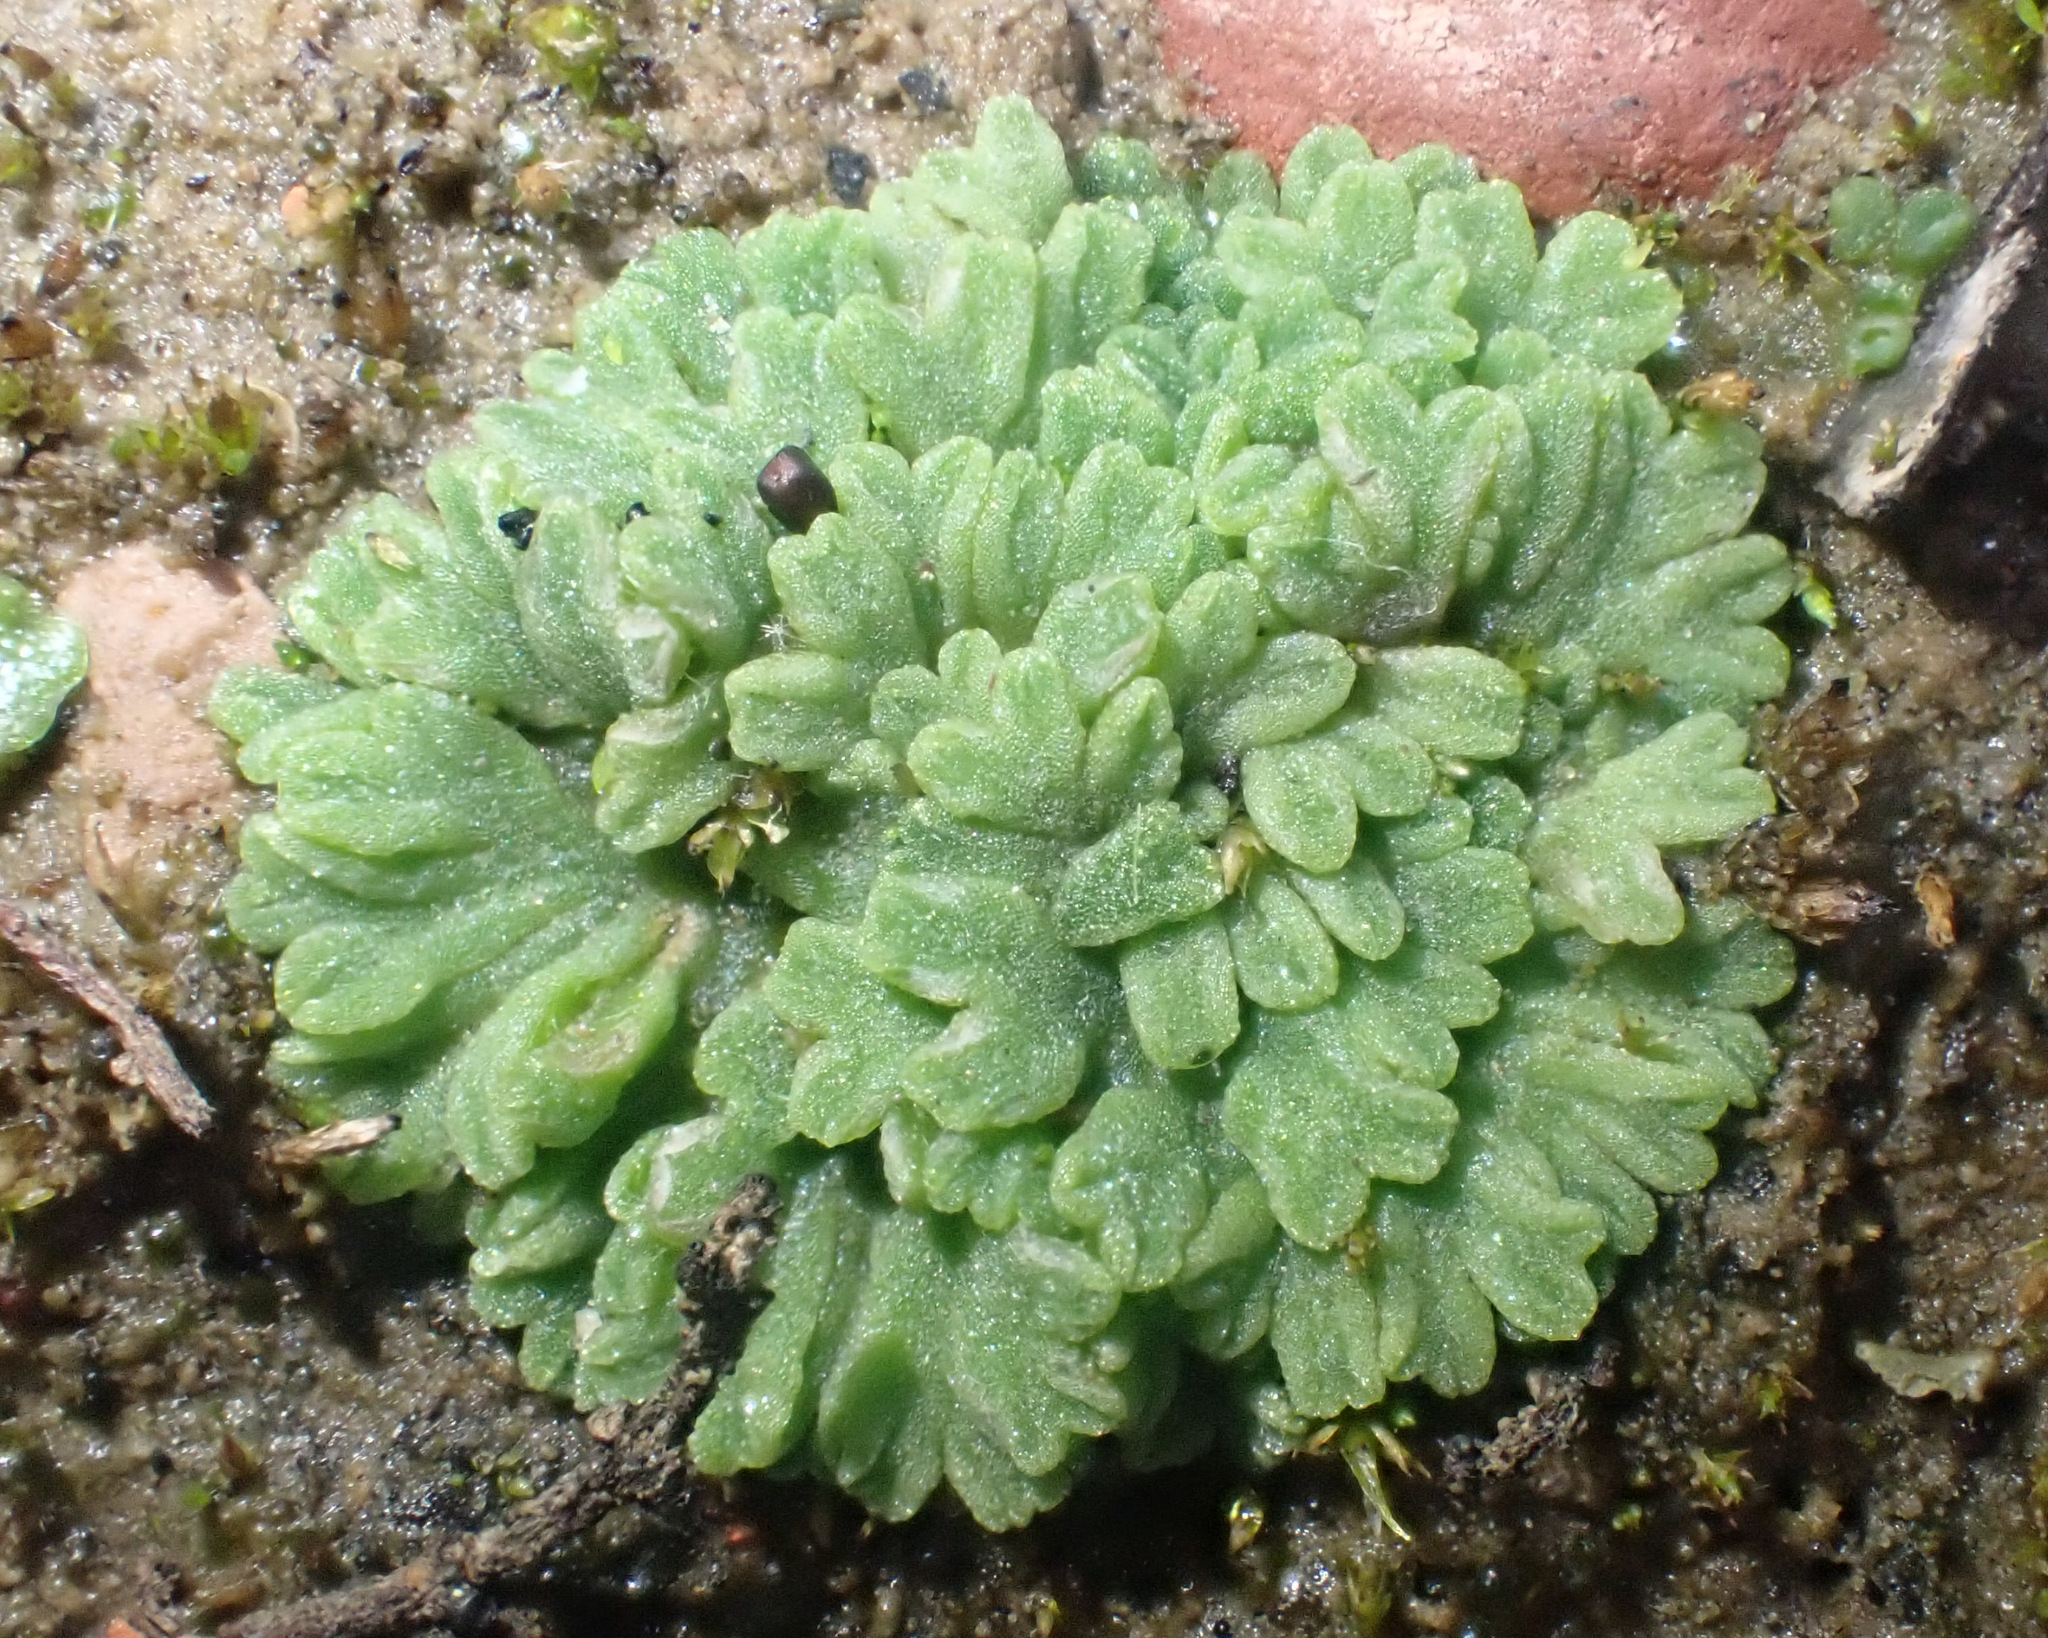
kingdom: Plantae
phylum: Marchantiophyta
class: Marchantiopsida
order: Marchantiales
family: Ricciaceae
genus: Riccia
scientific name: Riccia glauca
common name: Glaucous crystalwort
